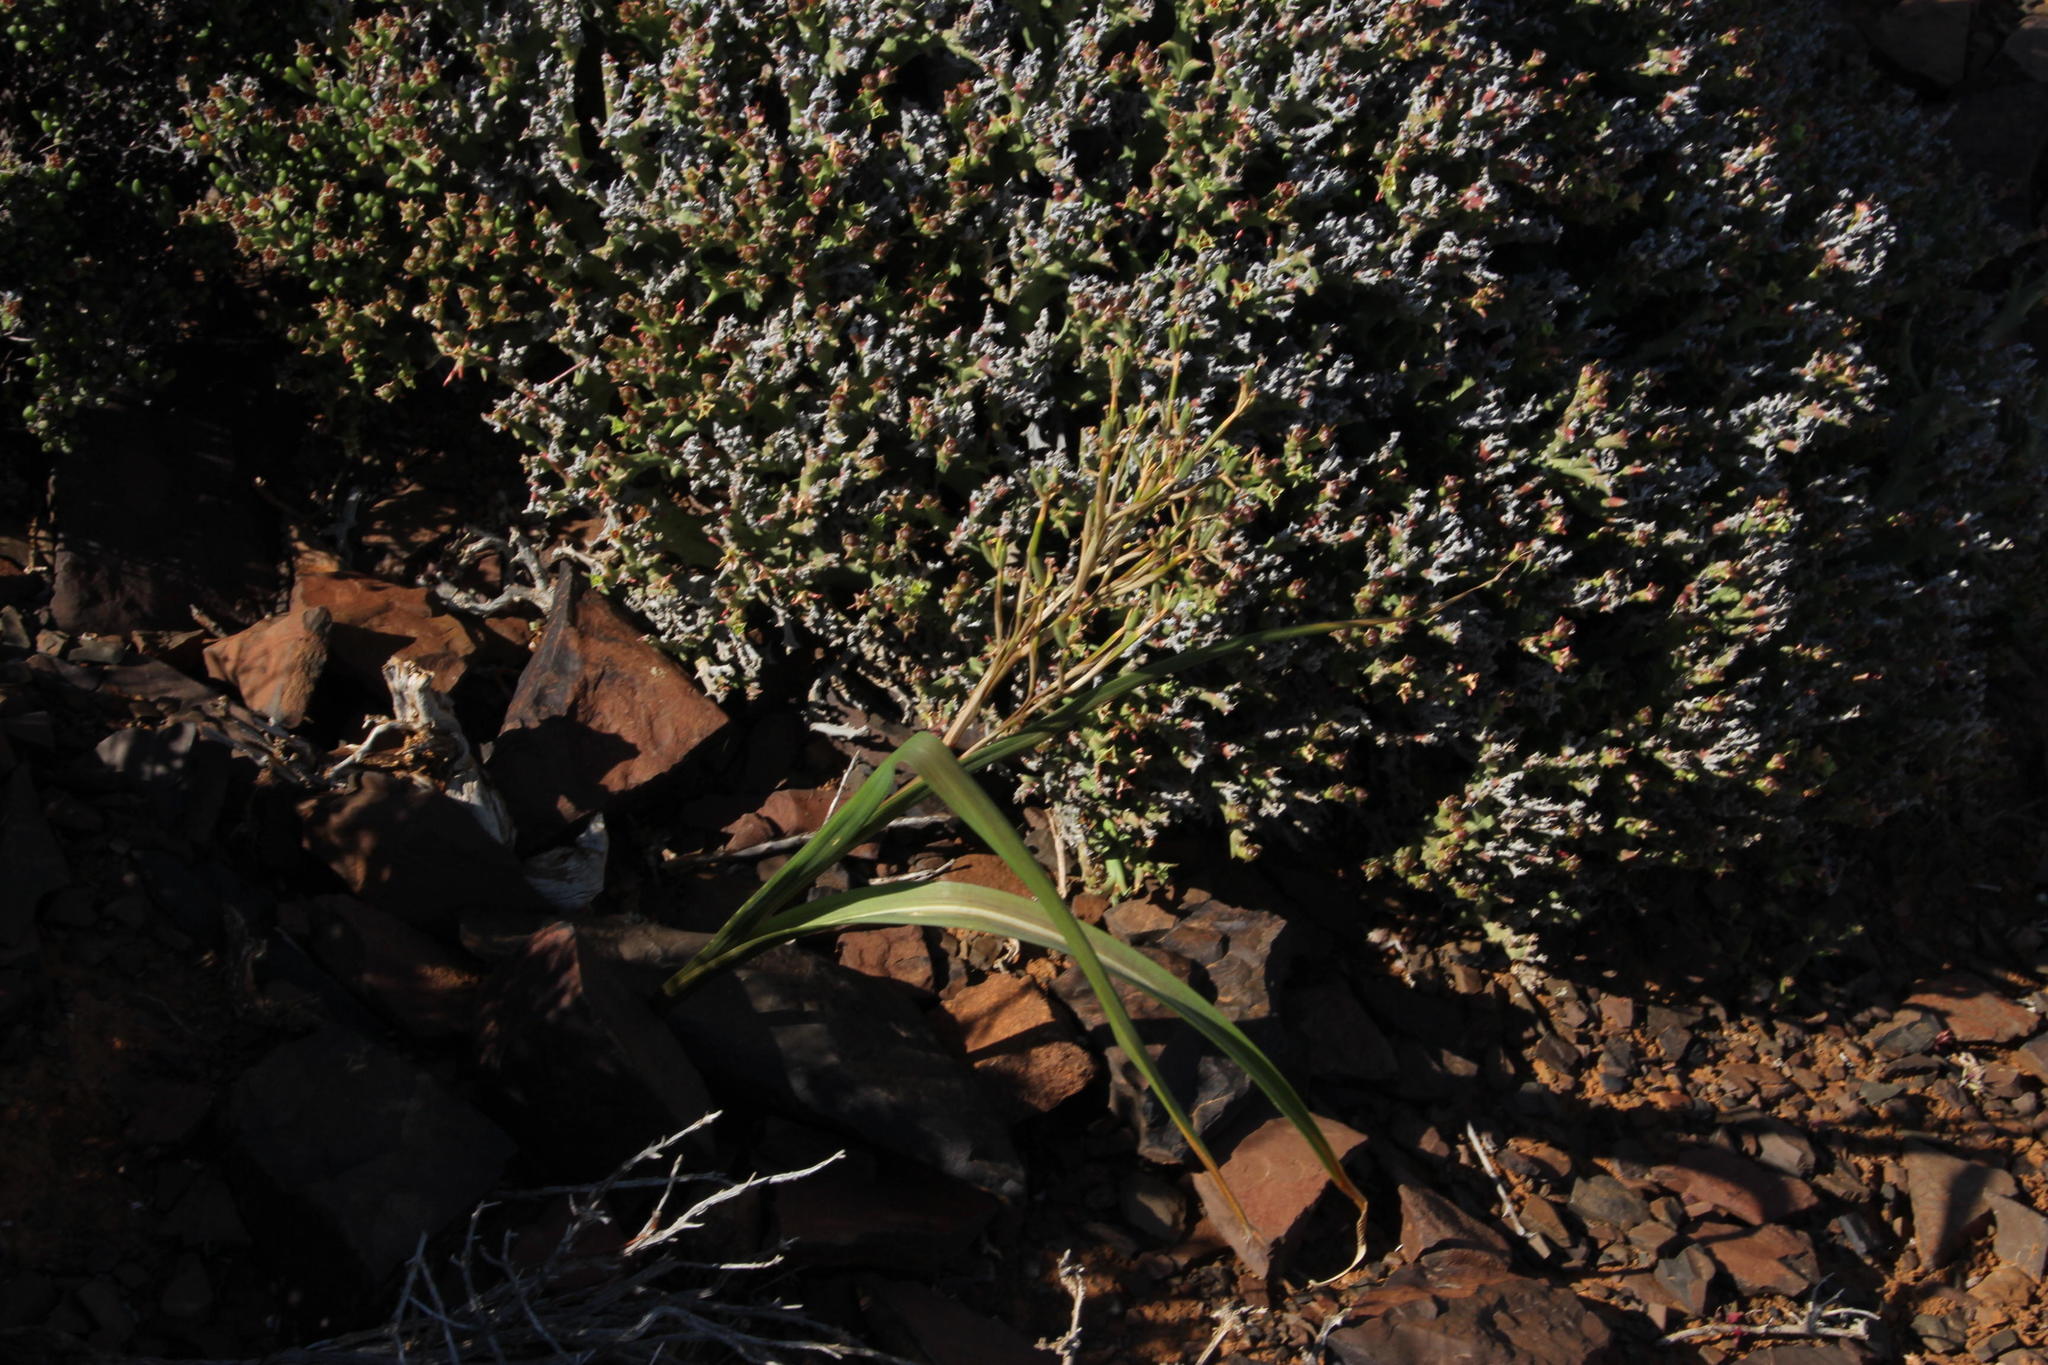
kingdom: Plantae
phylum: Tracheophyta
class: Liliopsida
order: Asparagales
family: Iridaceae
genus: Moraea
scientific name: Moraea fenestrata
